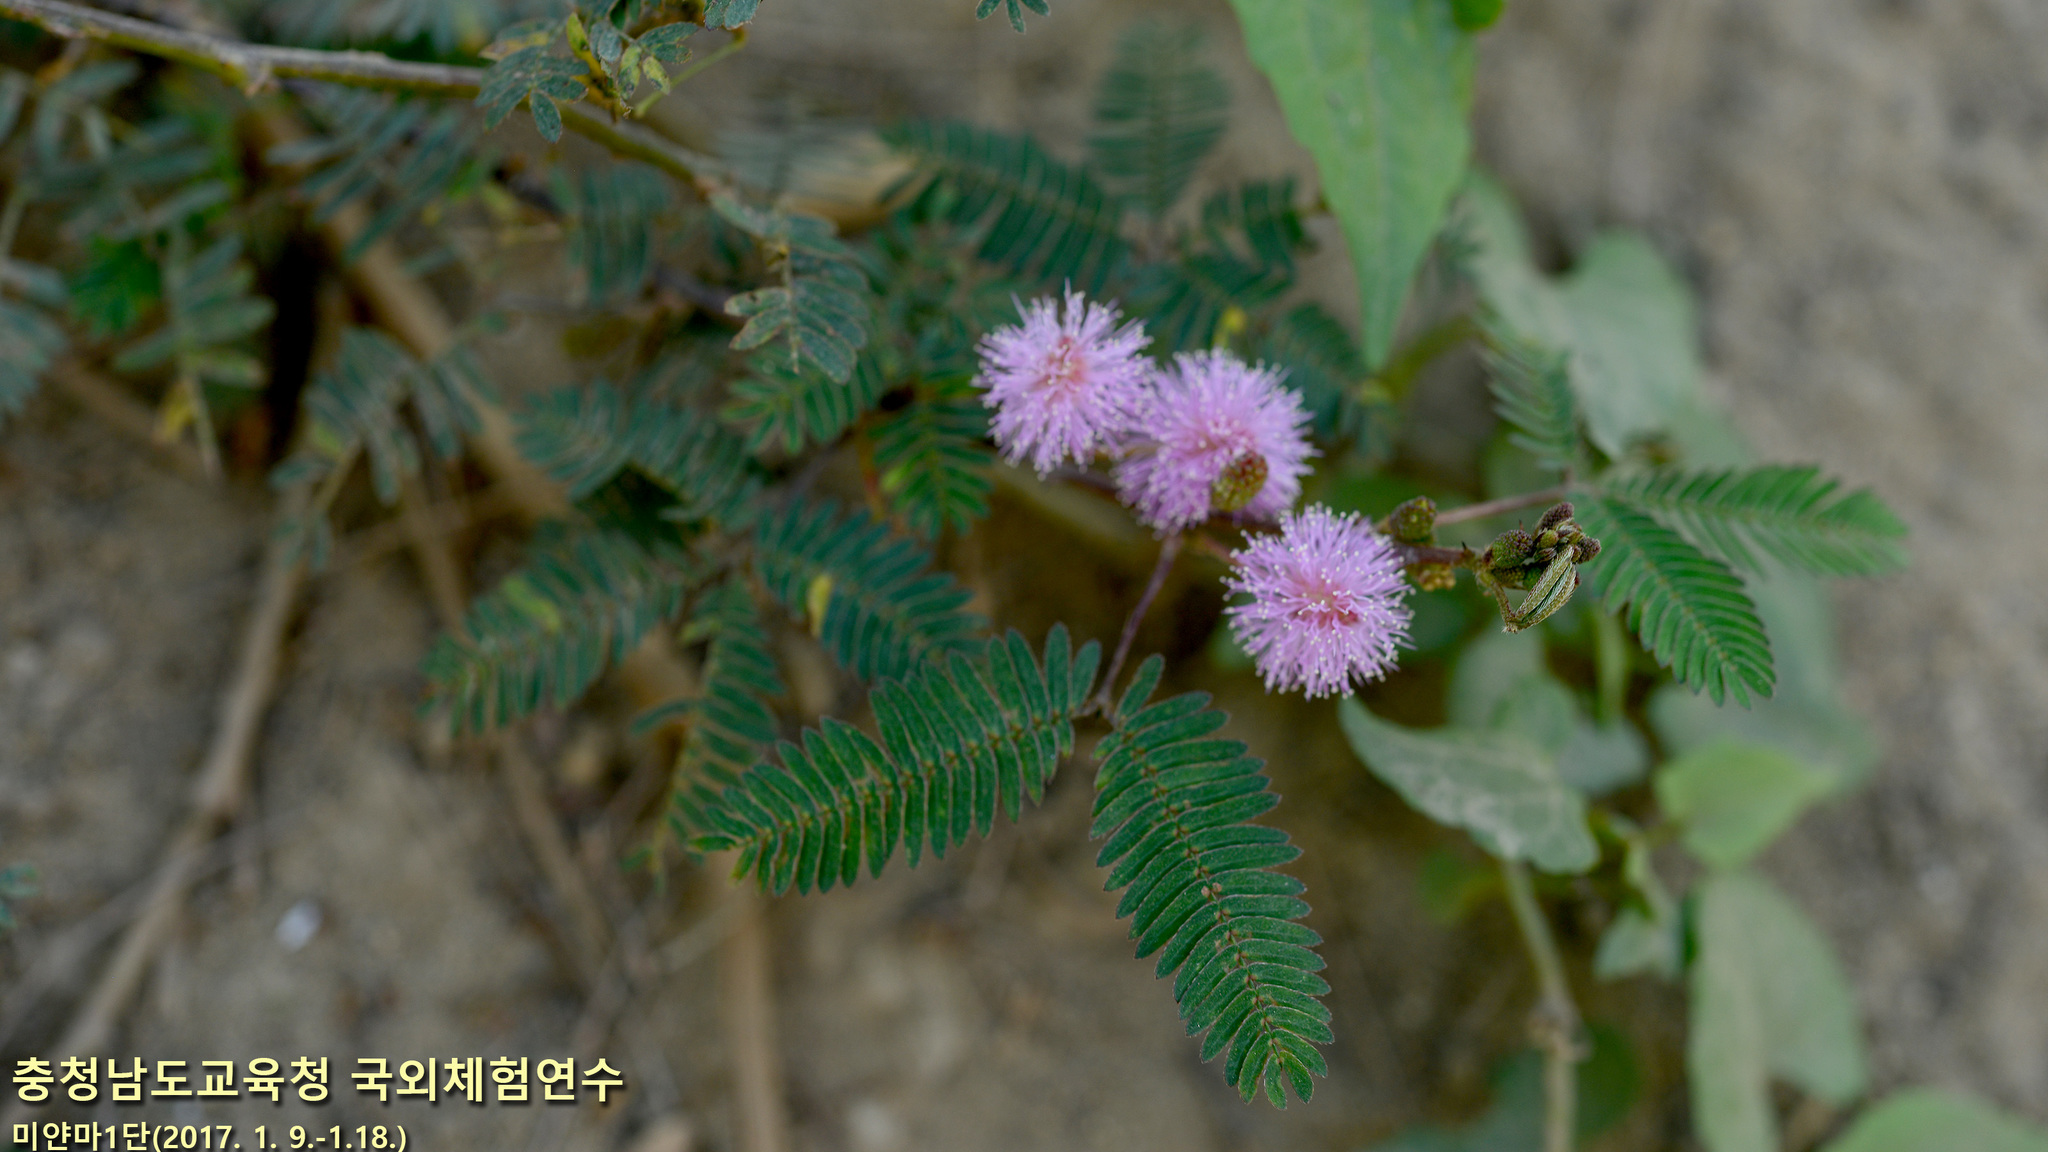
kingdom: Plantae
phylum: Tracheophyta
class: Magnoliopsida
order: Fabales
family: Fabaceae
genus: Mimosa
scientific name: Mimosa pudica
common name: Sensitive plant
